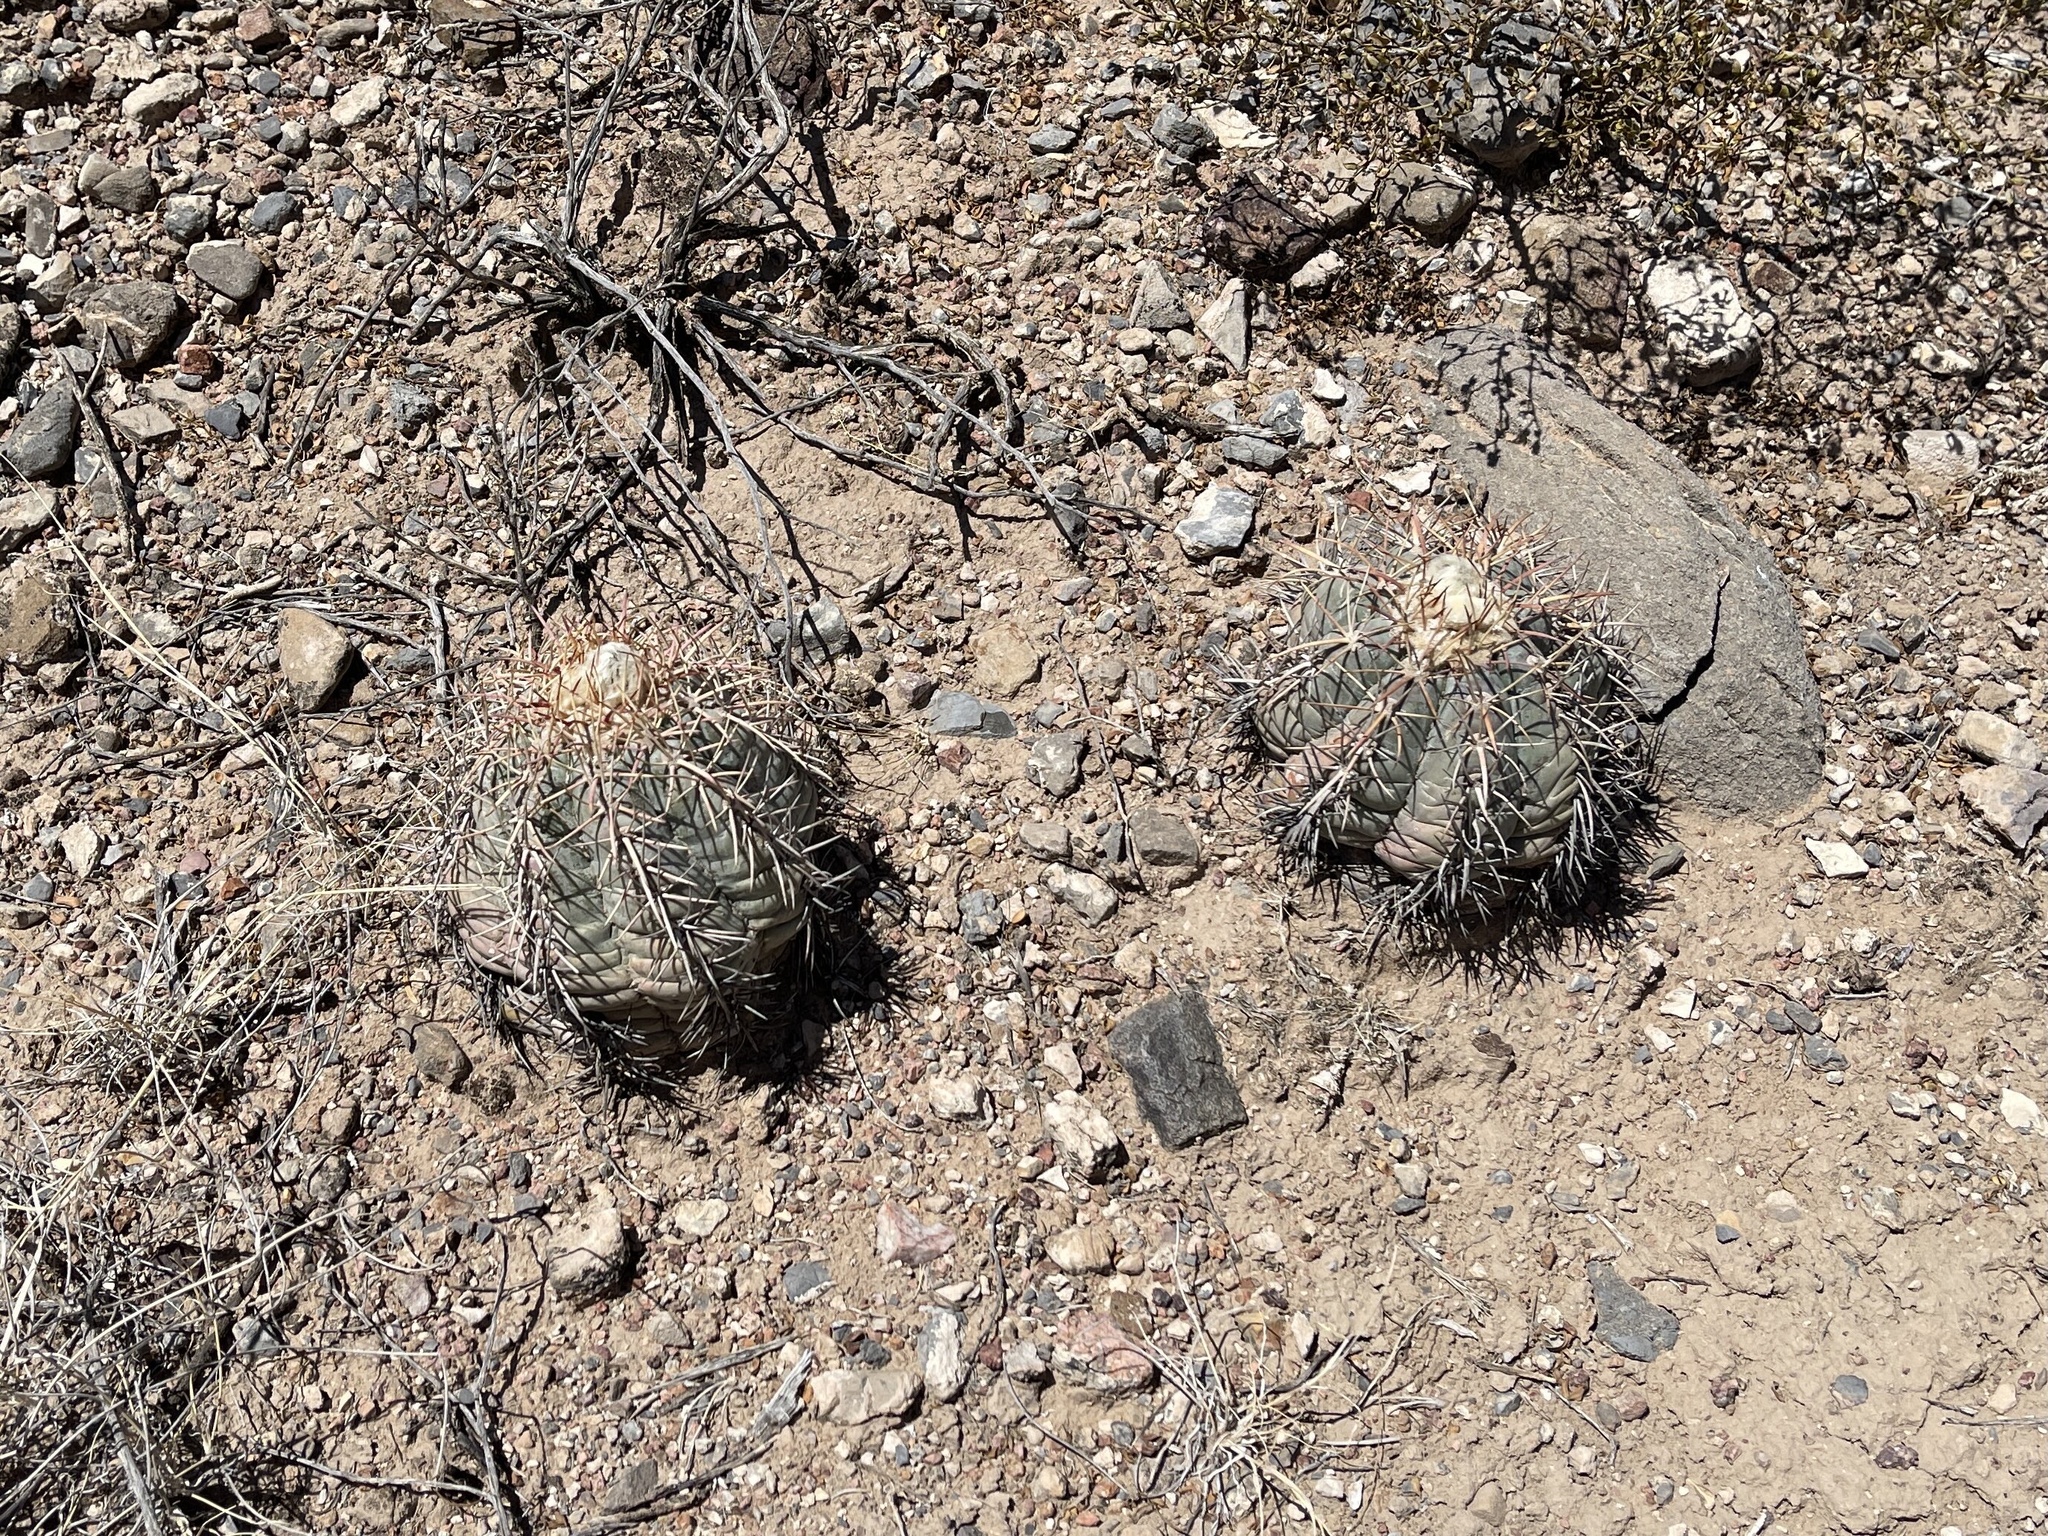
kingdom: Plantae
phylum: Tracheophyta
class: Magnoliopsida
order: Caryophyllales
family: Cactaceae
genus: Echinocactus
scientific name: Echinocactus horizonthalonius
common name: Devilshead
